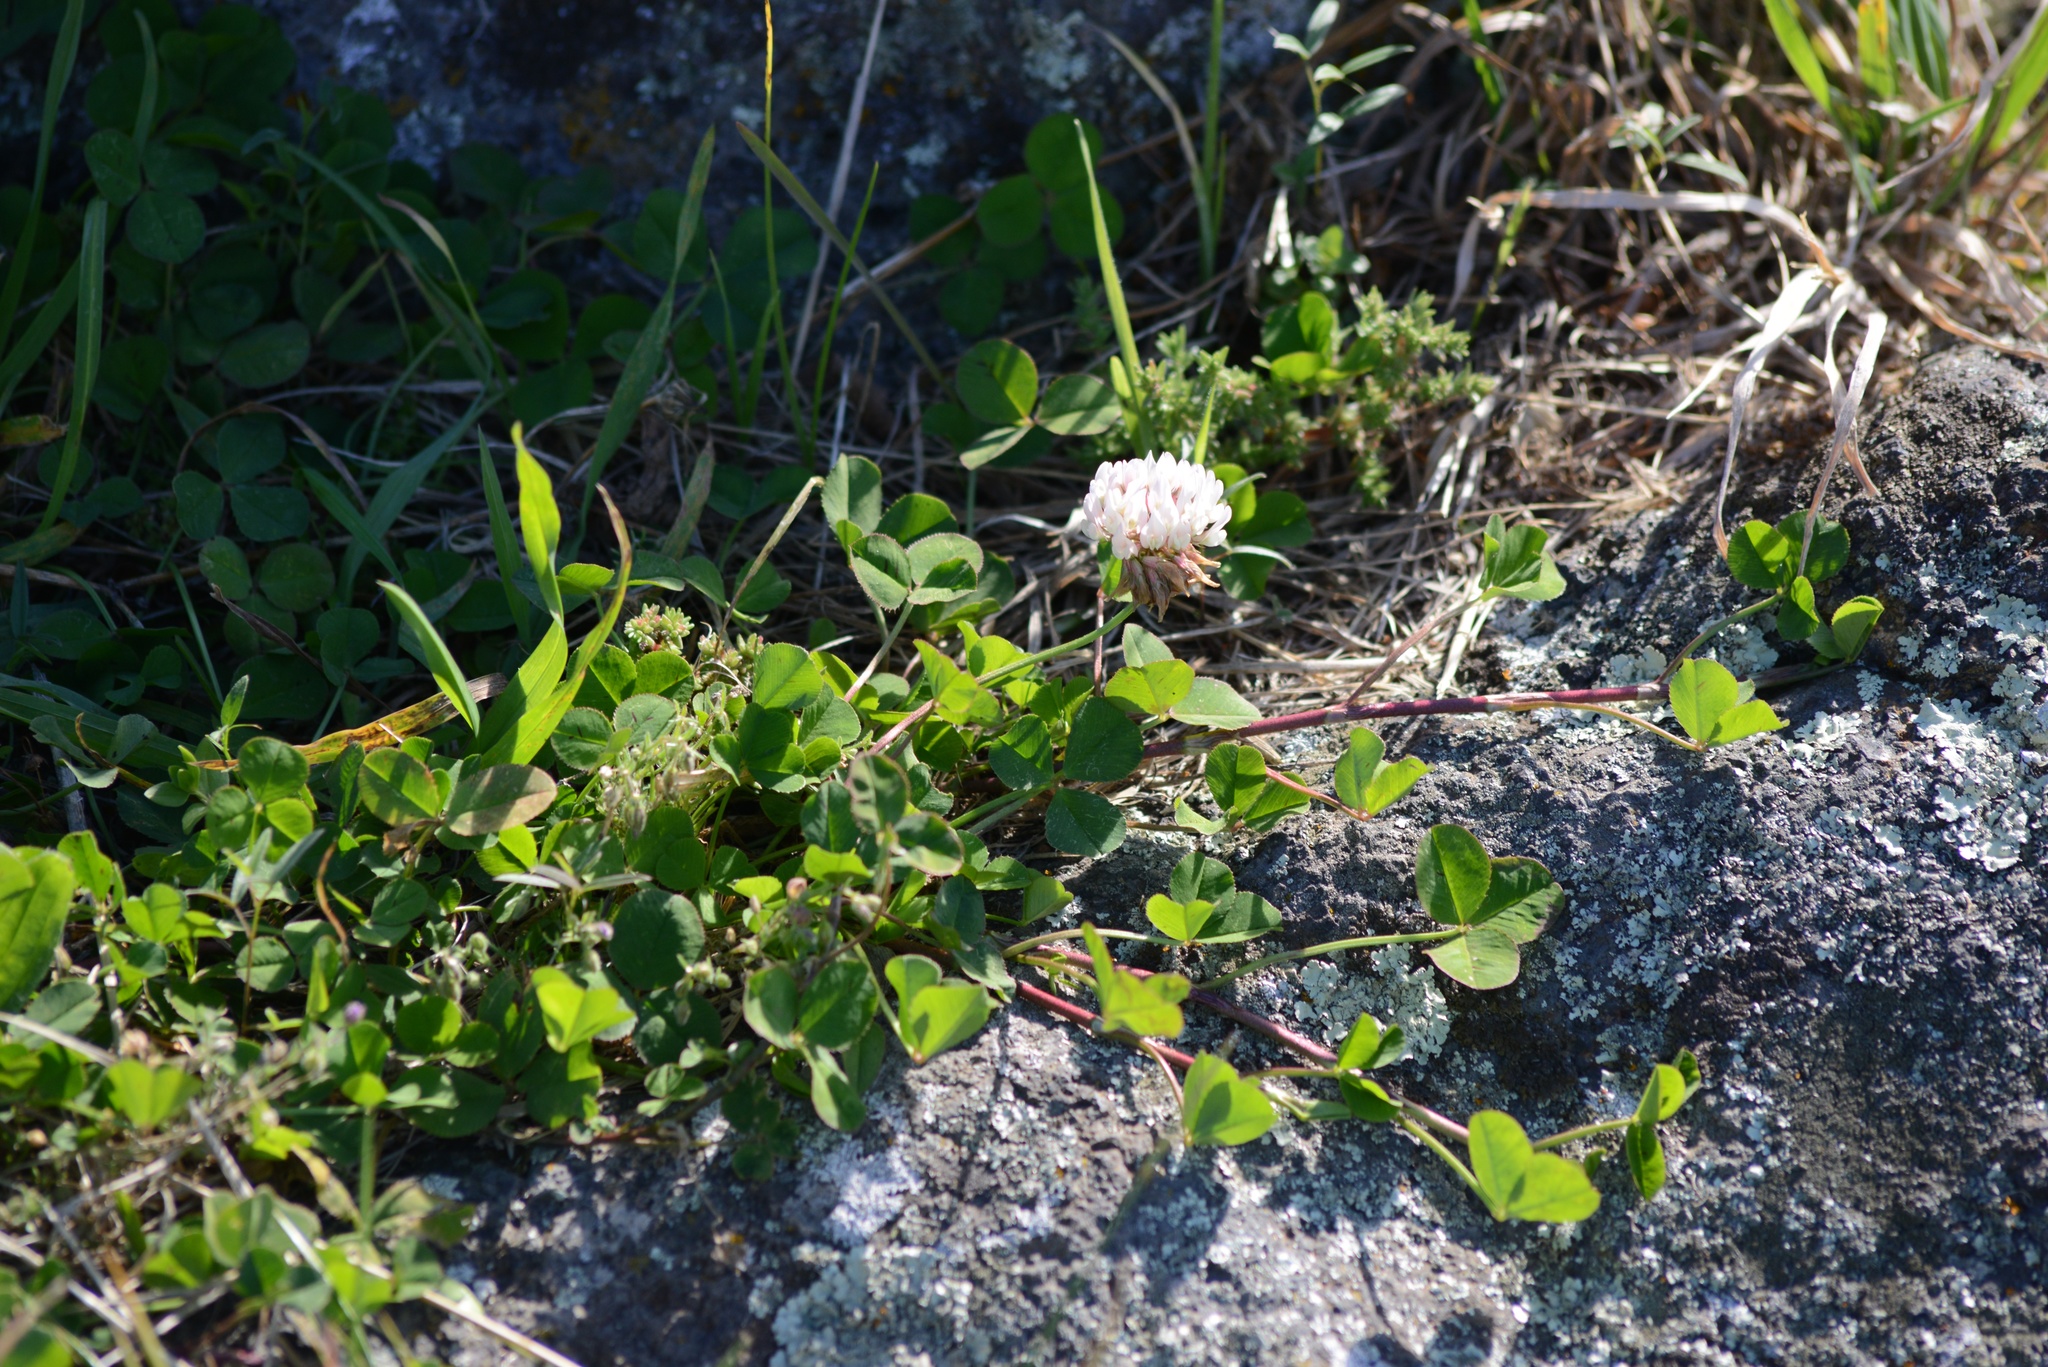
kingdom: Plantae
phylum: Tracheophyta
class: Magnoliopsida
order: Fabales
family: Fabaceae
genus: Trifolium
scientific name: Trifolium repens
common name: White clover
